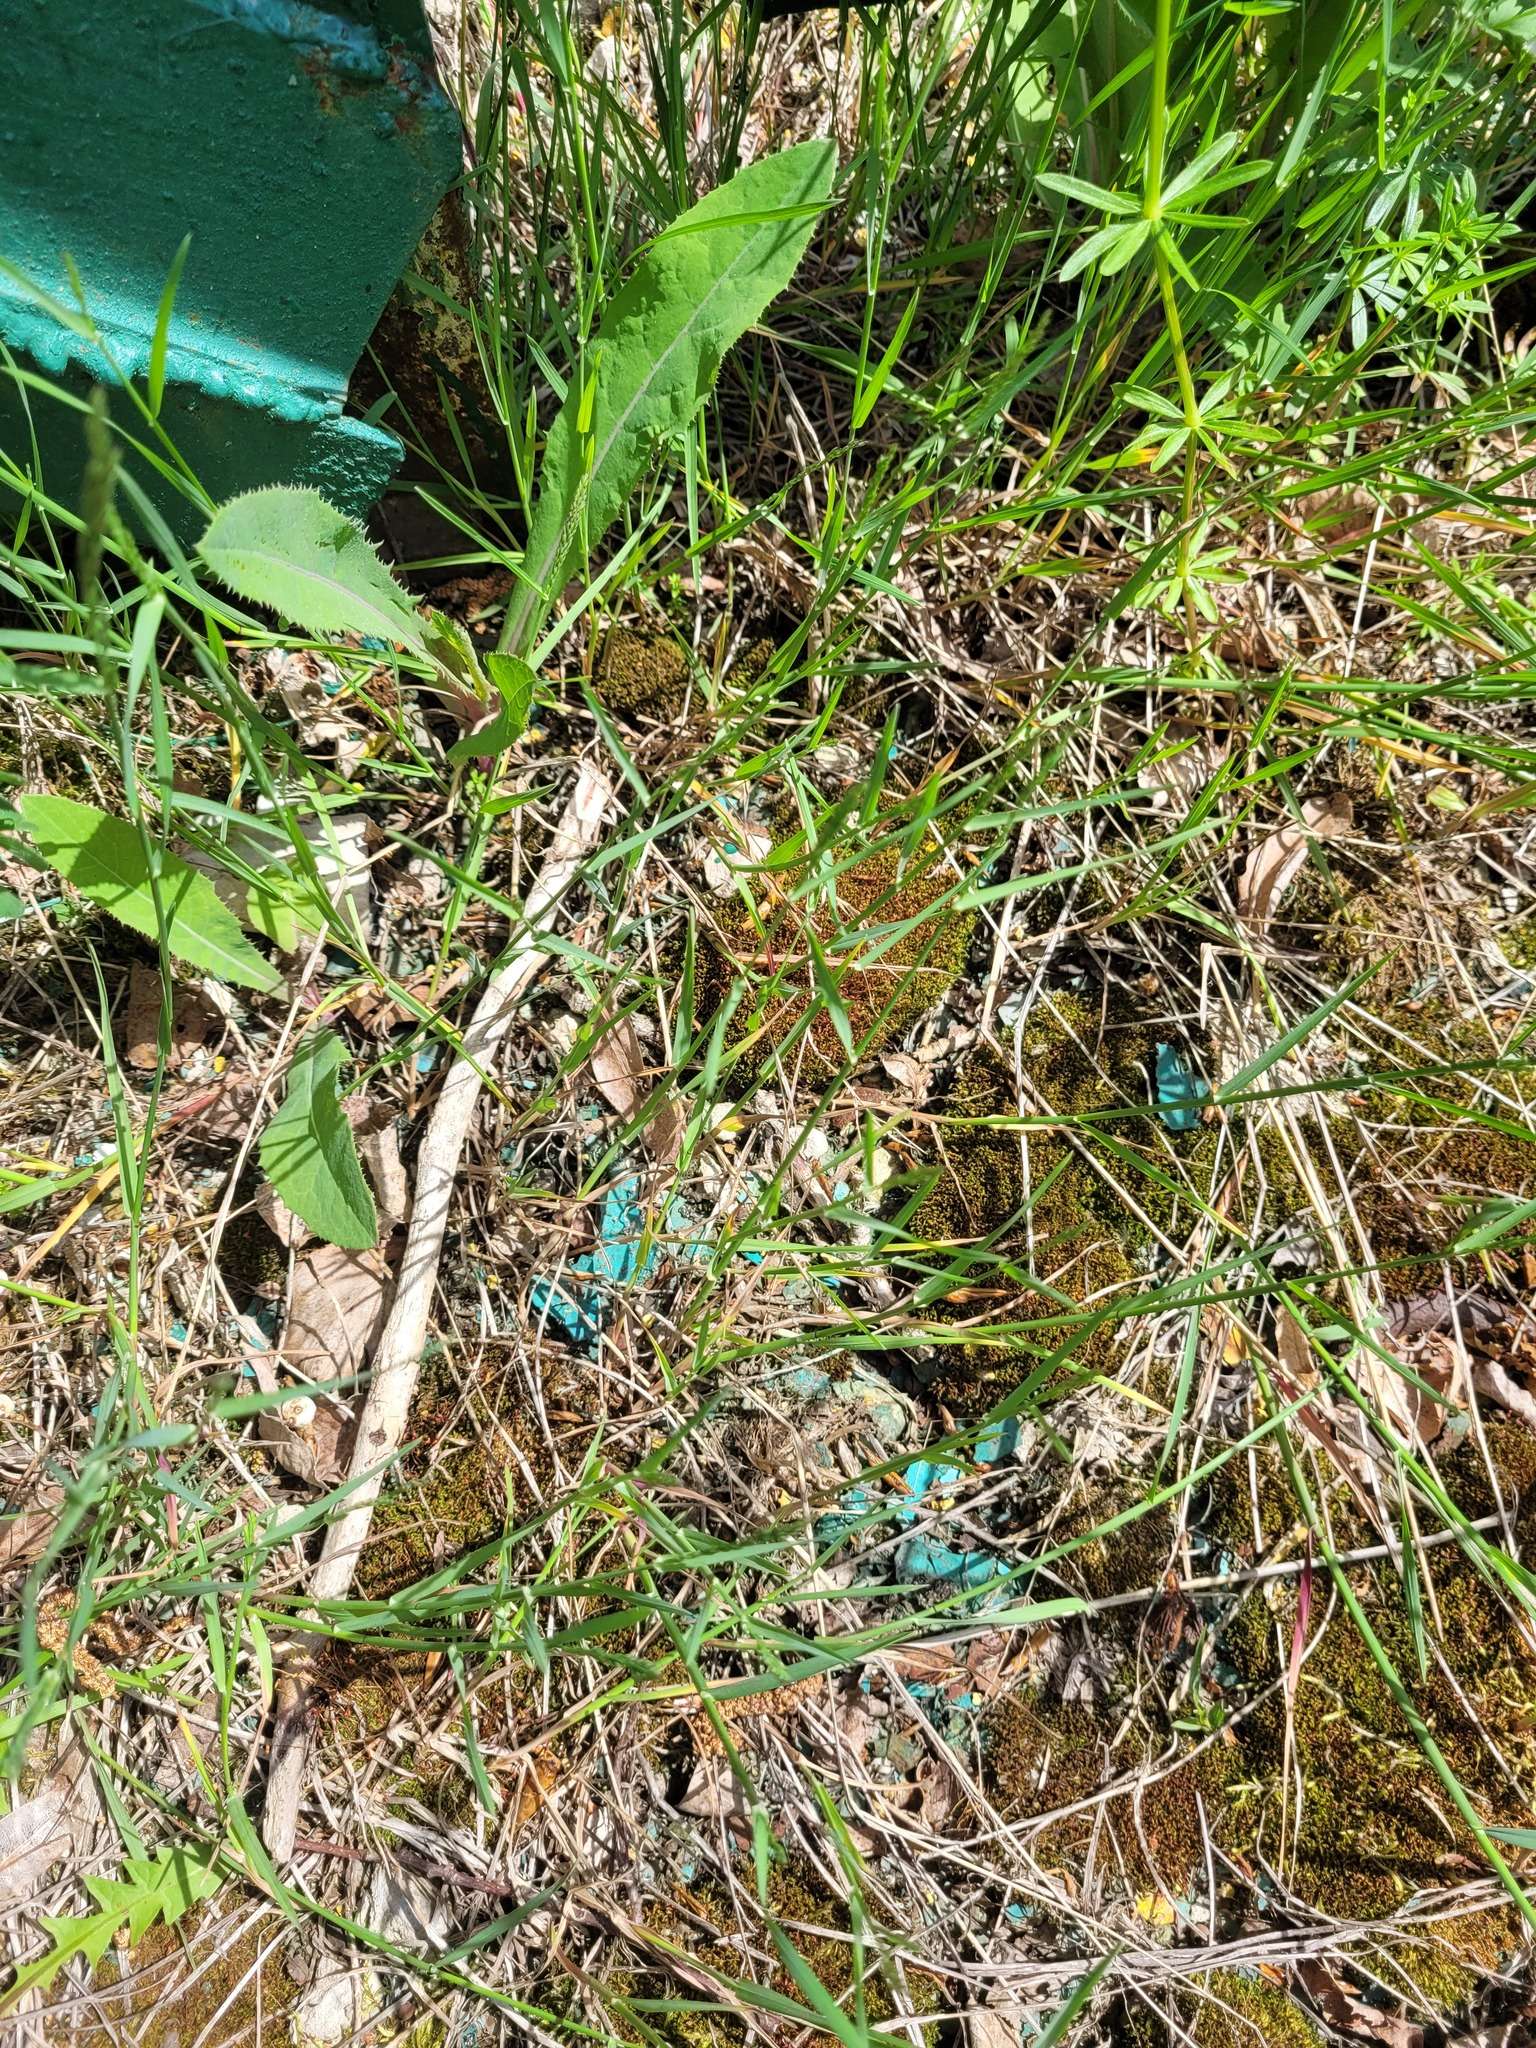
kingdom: Plantae
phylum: Tracheophyta
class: Liliopsida
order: Poales
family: Poaceae
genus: Poa
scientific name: Poa compressa
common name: Canada bluegrass
